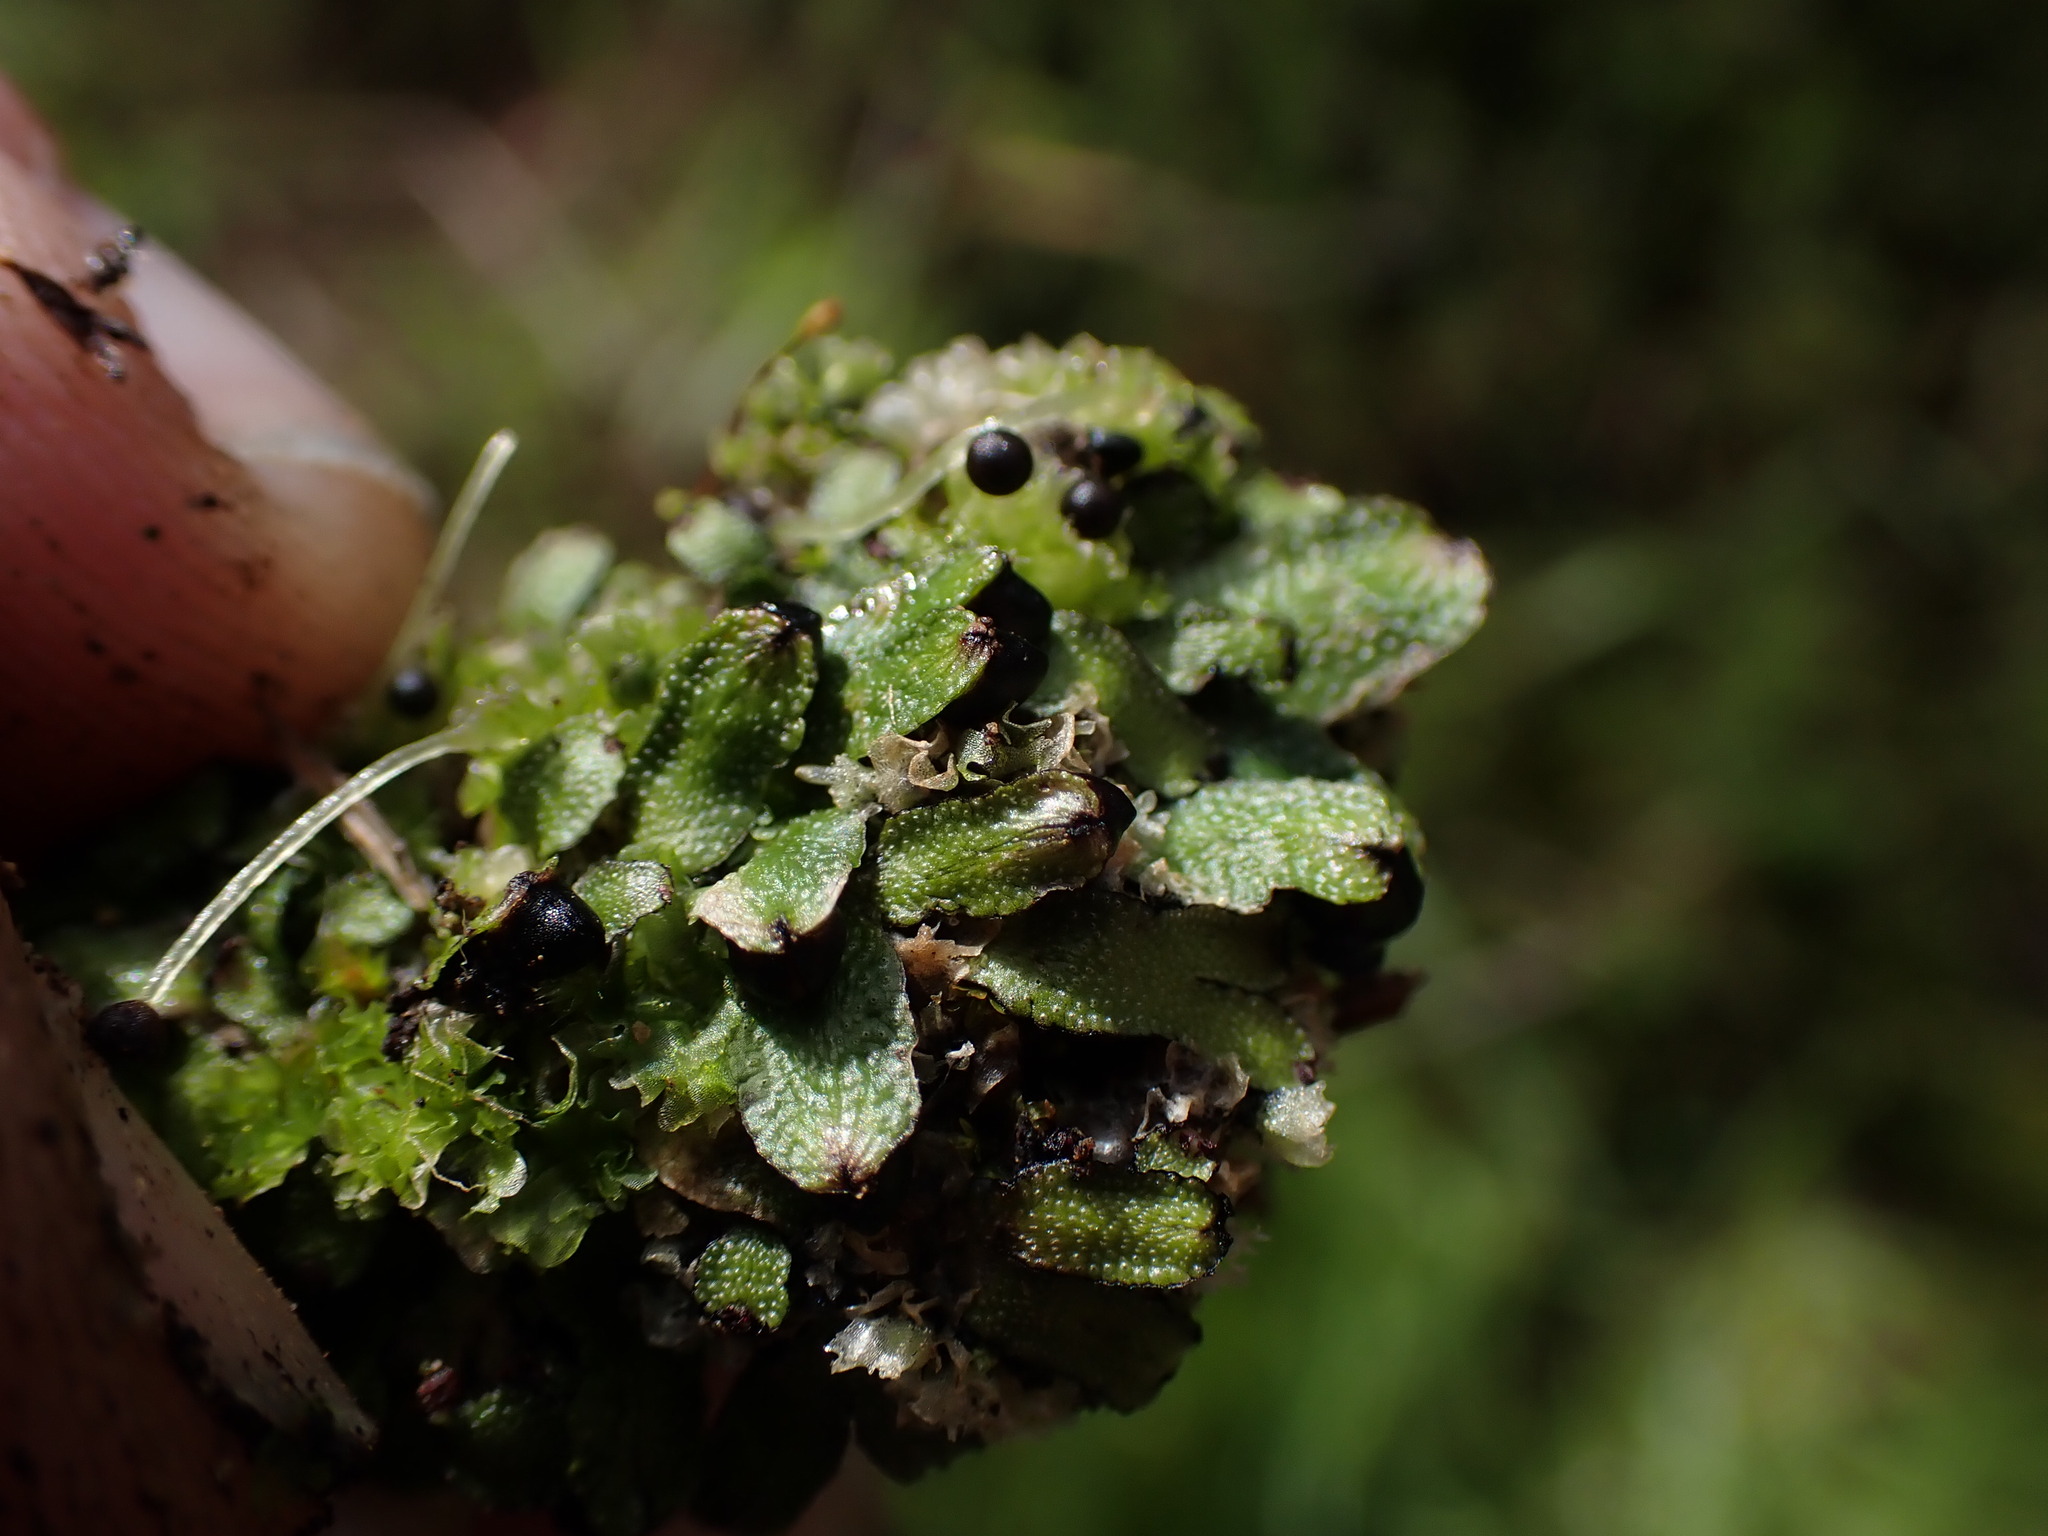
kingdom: Plantae
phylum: Marchantiophyta
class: Marchantiopsida
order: Marchantiales
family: Targioniaceae
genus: Targionia
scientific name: Targionia hypophylla
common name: Orobus-seed liverwort
